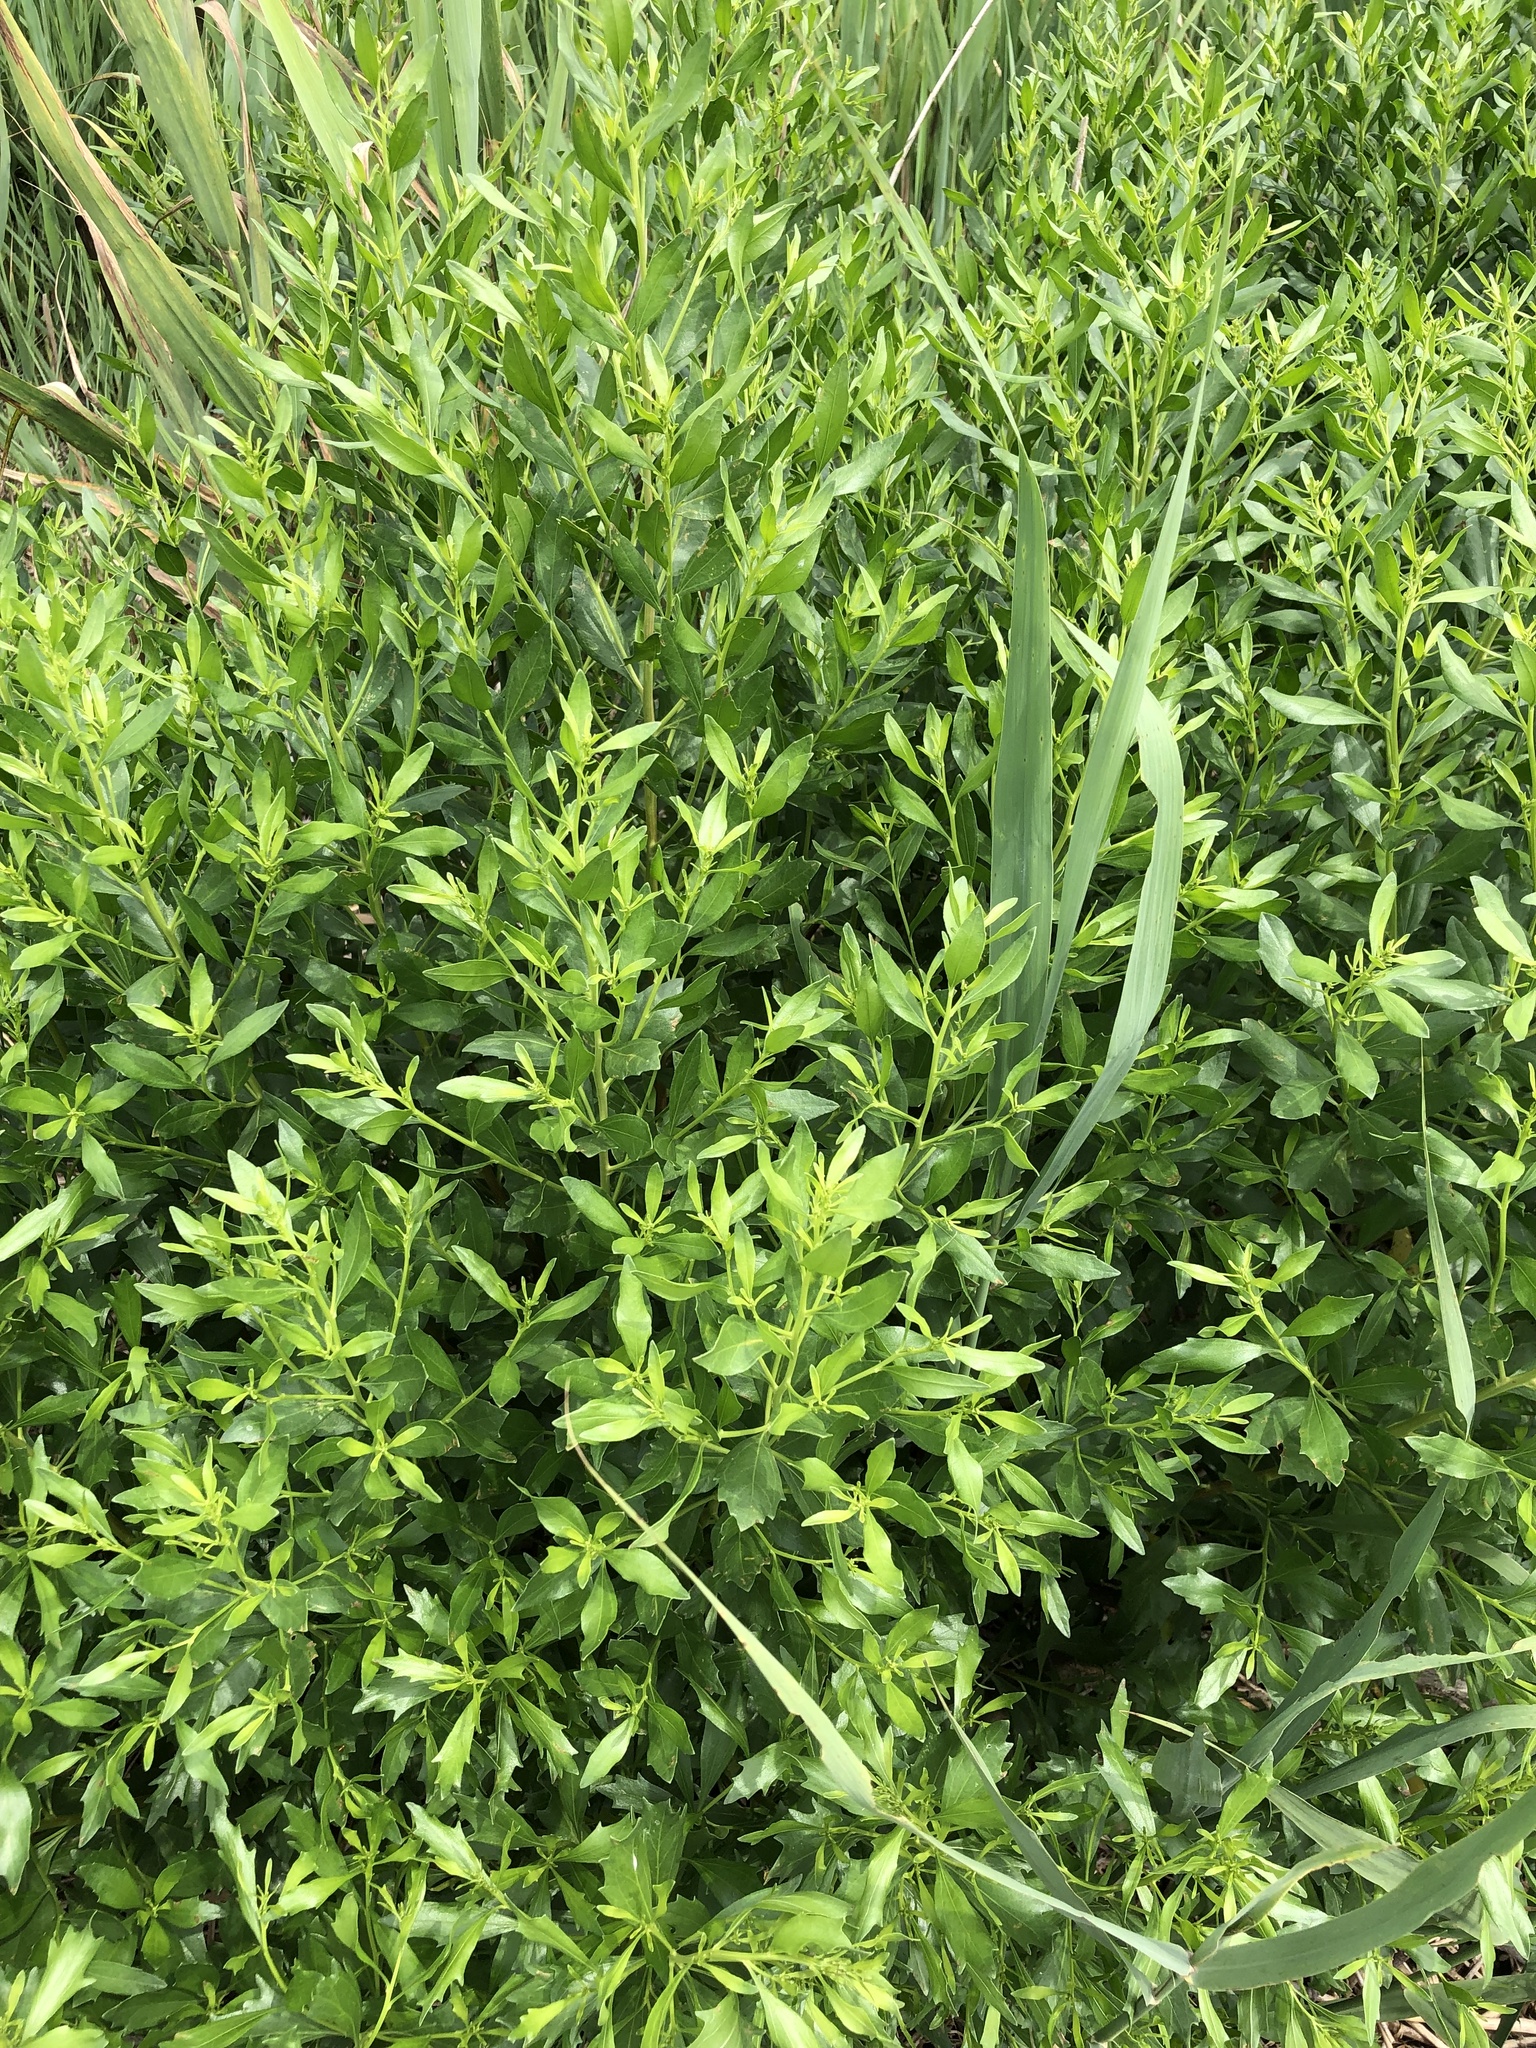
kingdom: Plantae
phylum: Tracheophyta
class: Magnoliopsida
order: Asterales
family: Asteraceae
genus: Baccharis
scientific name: Baccharis halimifolia
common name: Eastern baccharis
